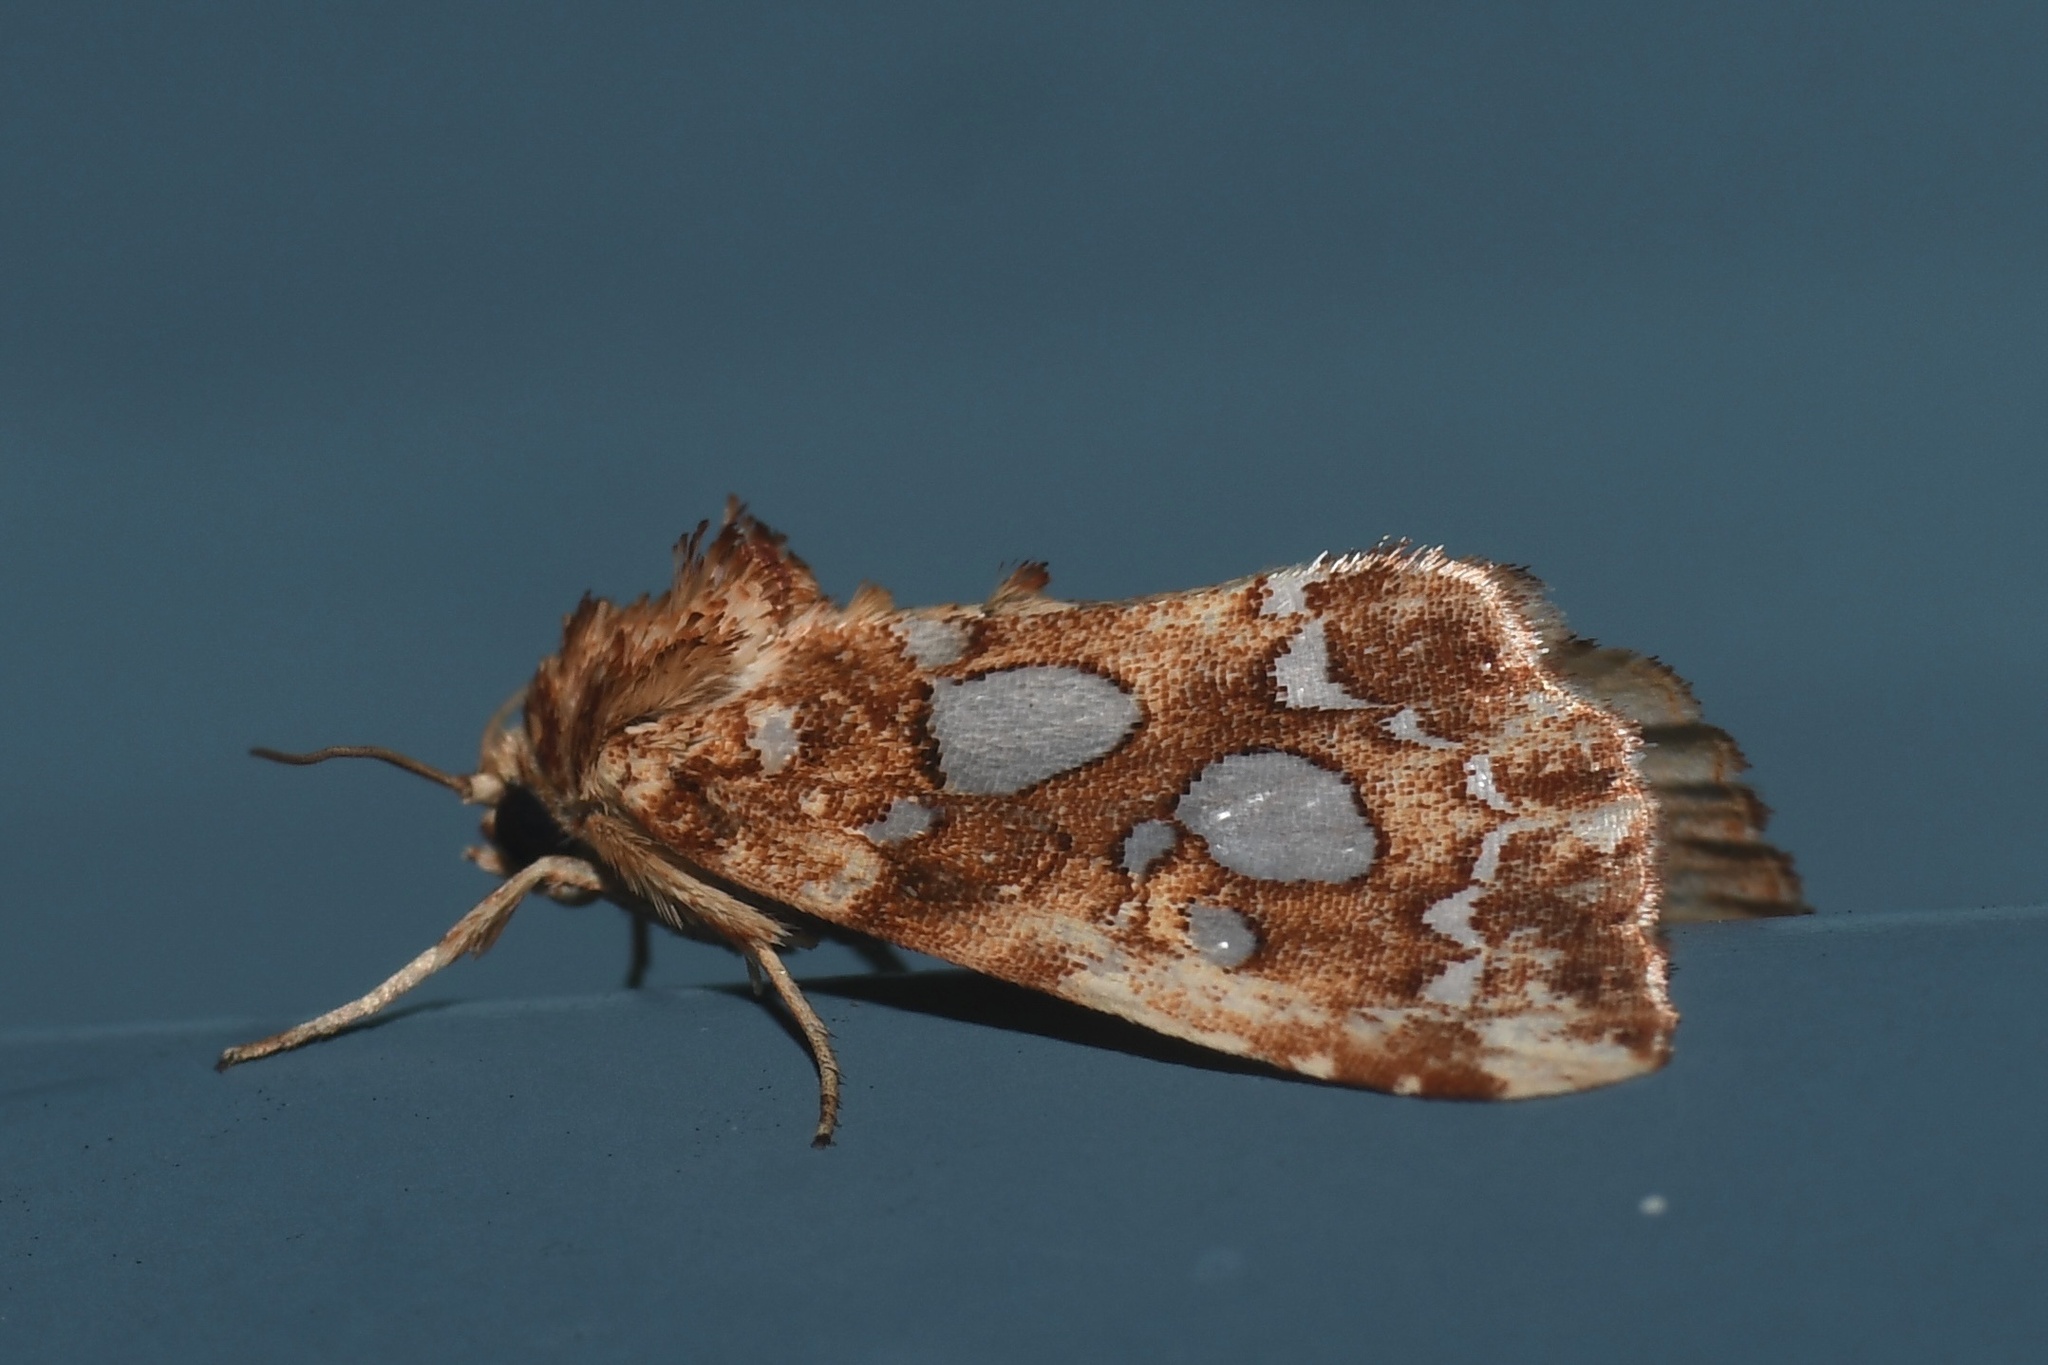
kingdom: Animalia
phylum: Arthropoda
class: Insecta
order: Lepidoptera
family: Noctuidae
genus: Callopistria
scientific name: Callopistria cordata
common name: Silver-spotted fern moth
